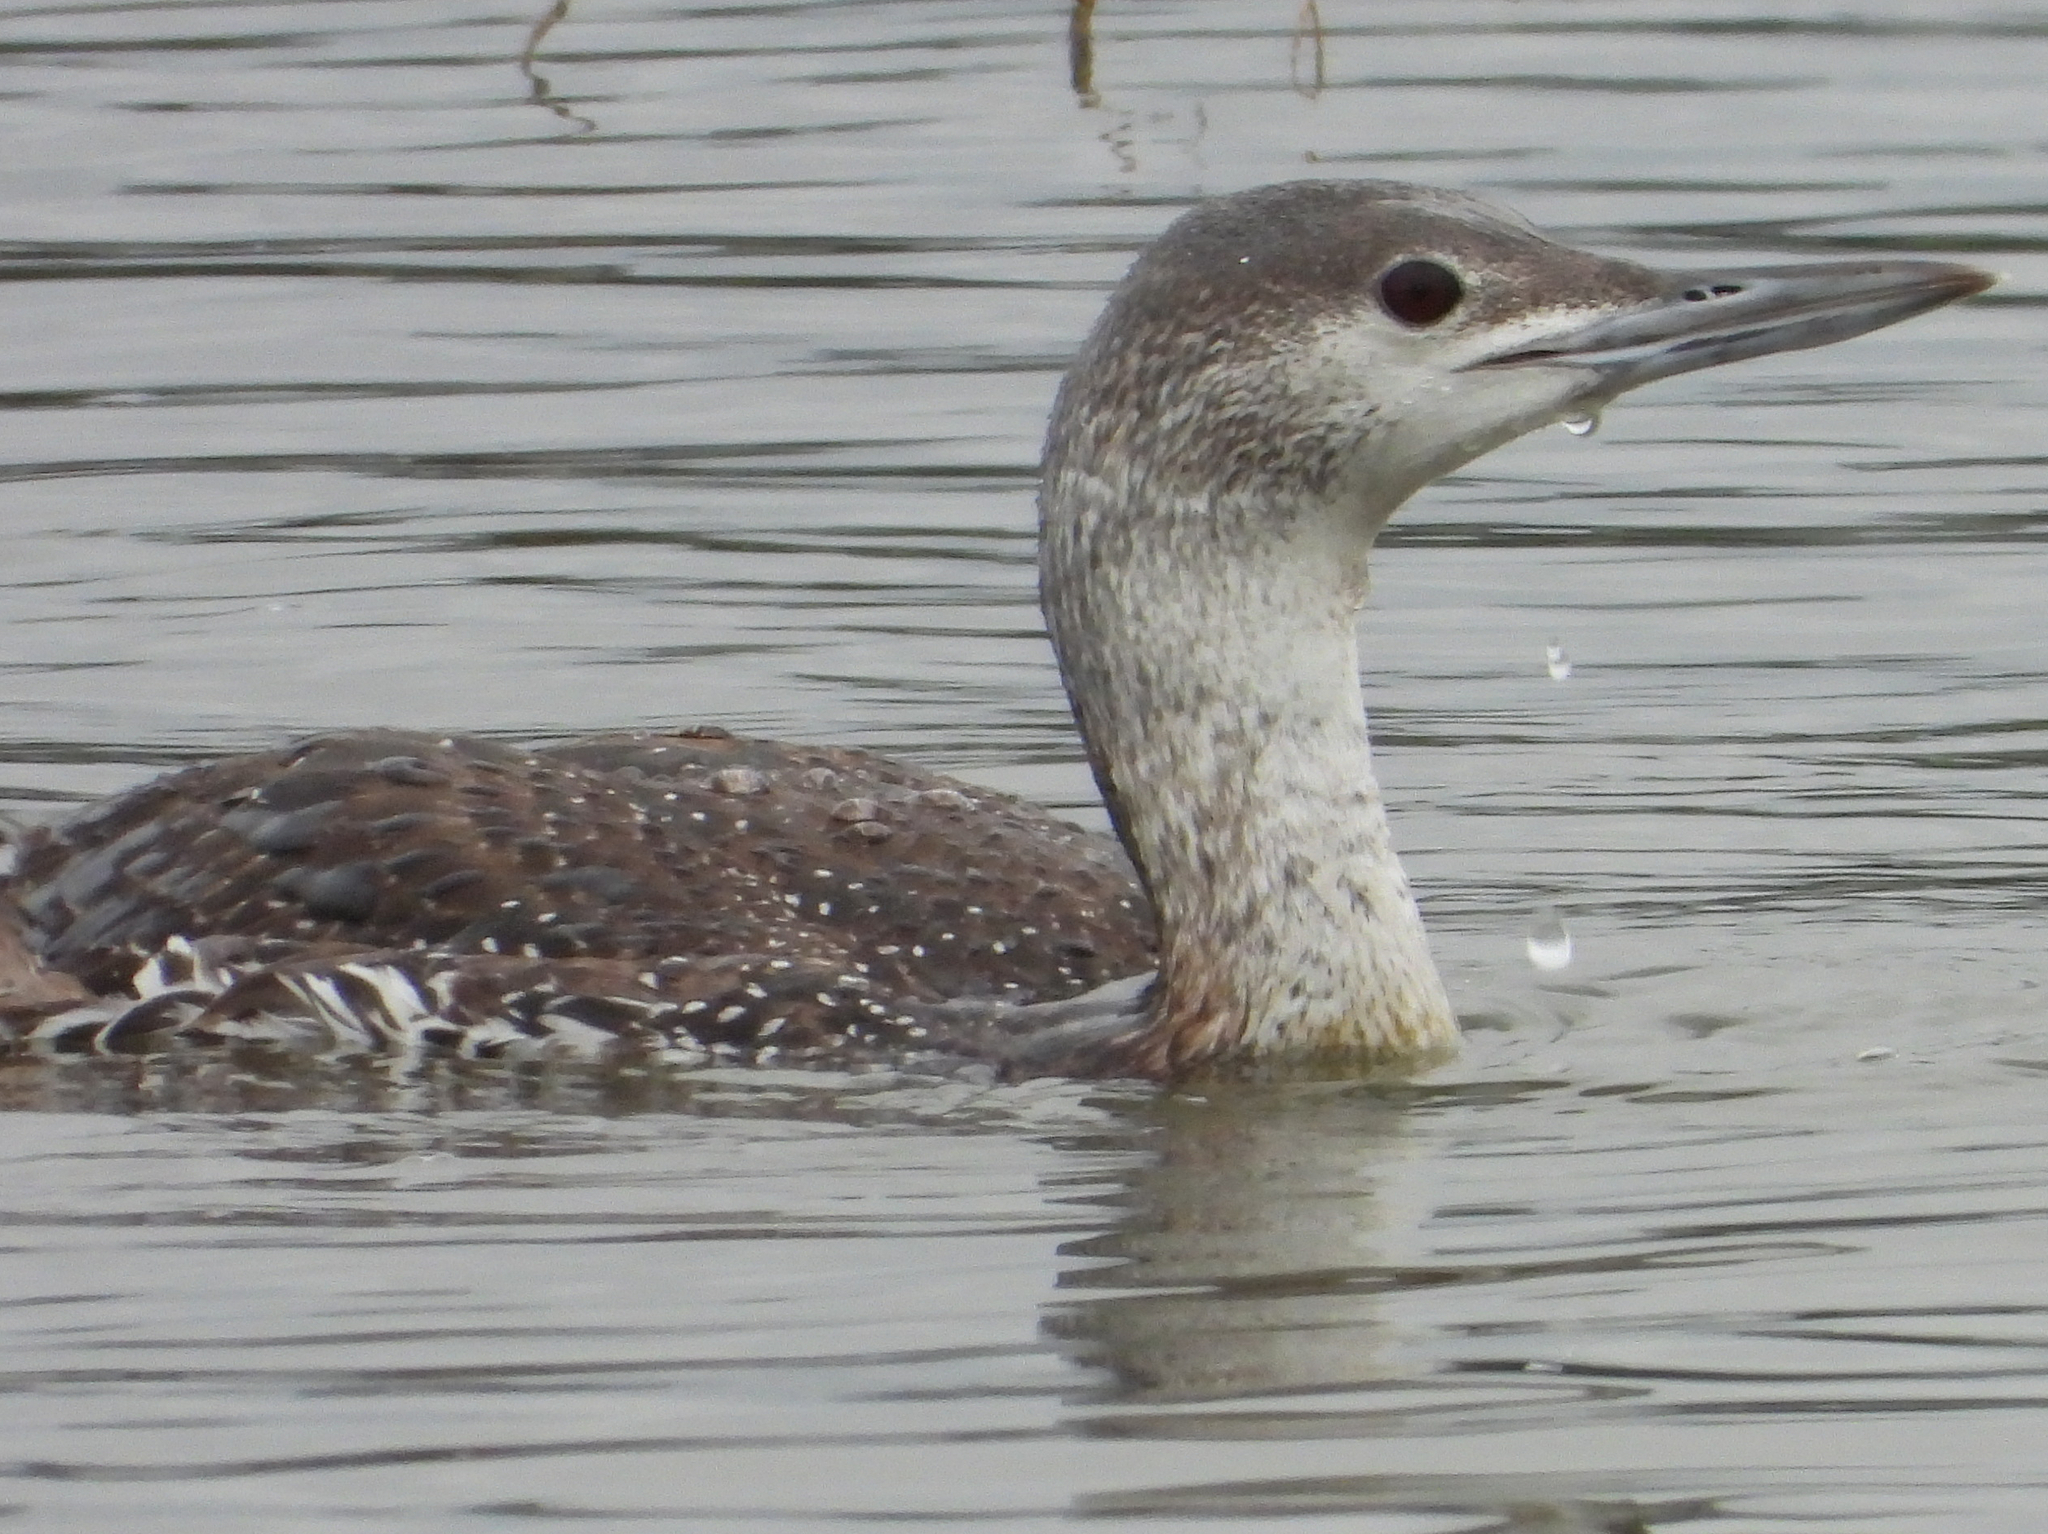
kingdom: Animalia
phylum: Chordata
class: Aves
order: Gaviiformes
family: Gaviidae
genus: Gavia
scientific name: Gavia stellata
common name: Red-throated loon
